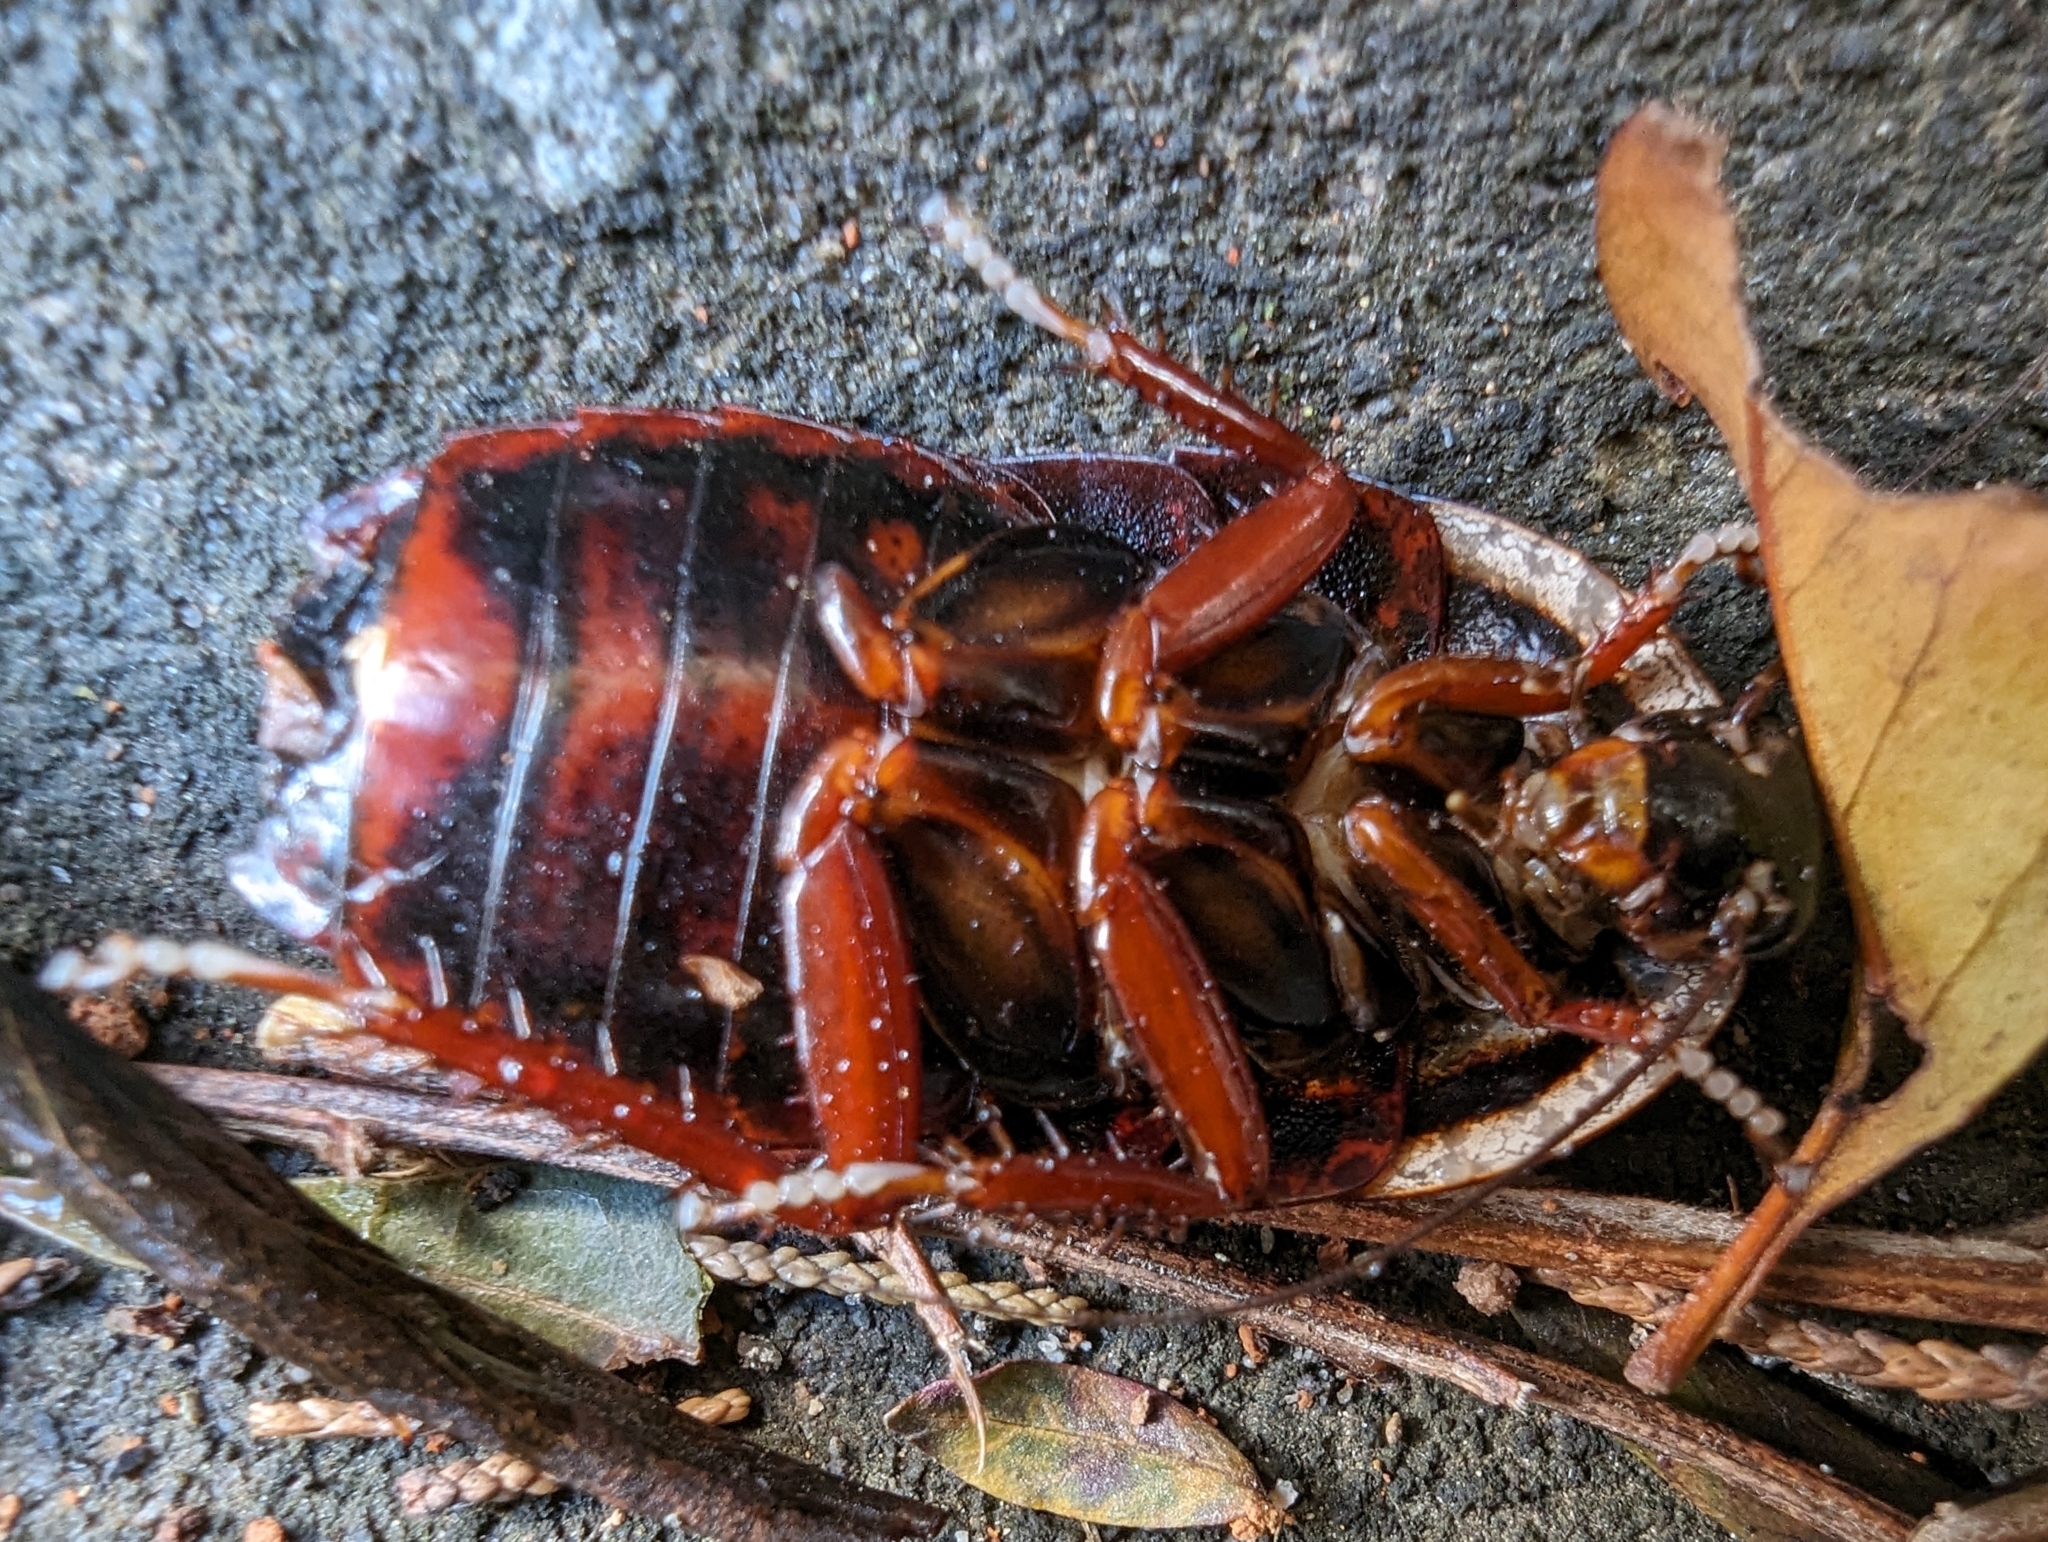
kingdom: Animalia
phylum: Arthropoda
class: Insecta
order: Blattodea
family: Blaberidae
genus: Opisthoplatia
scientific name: Opisthoplatia orientalis
